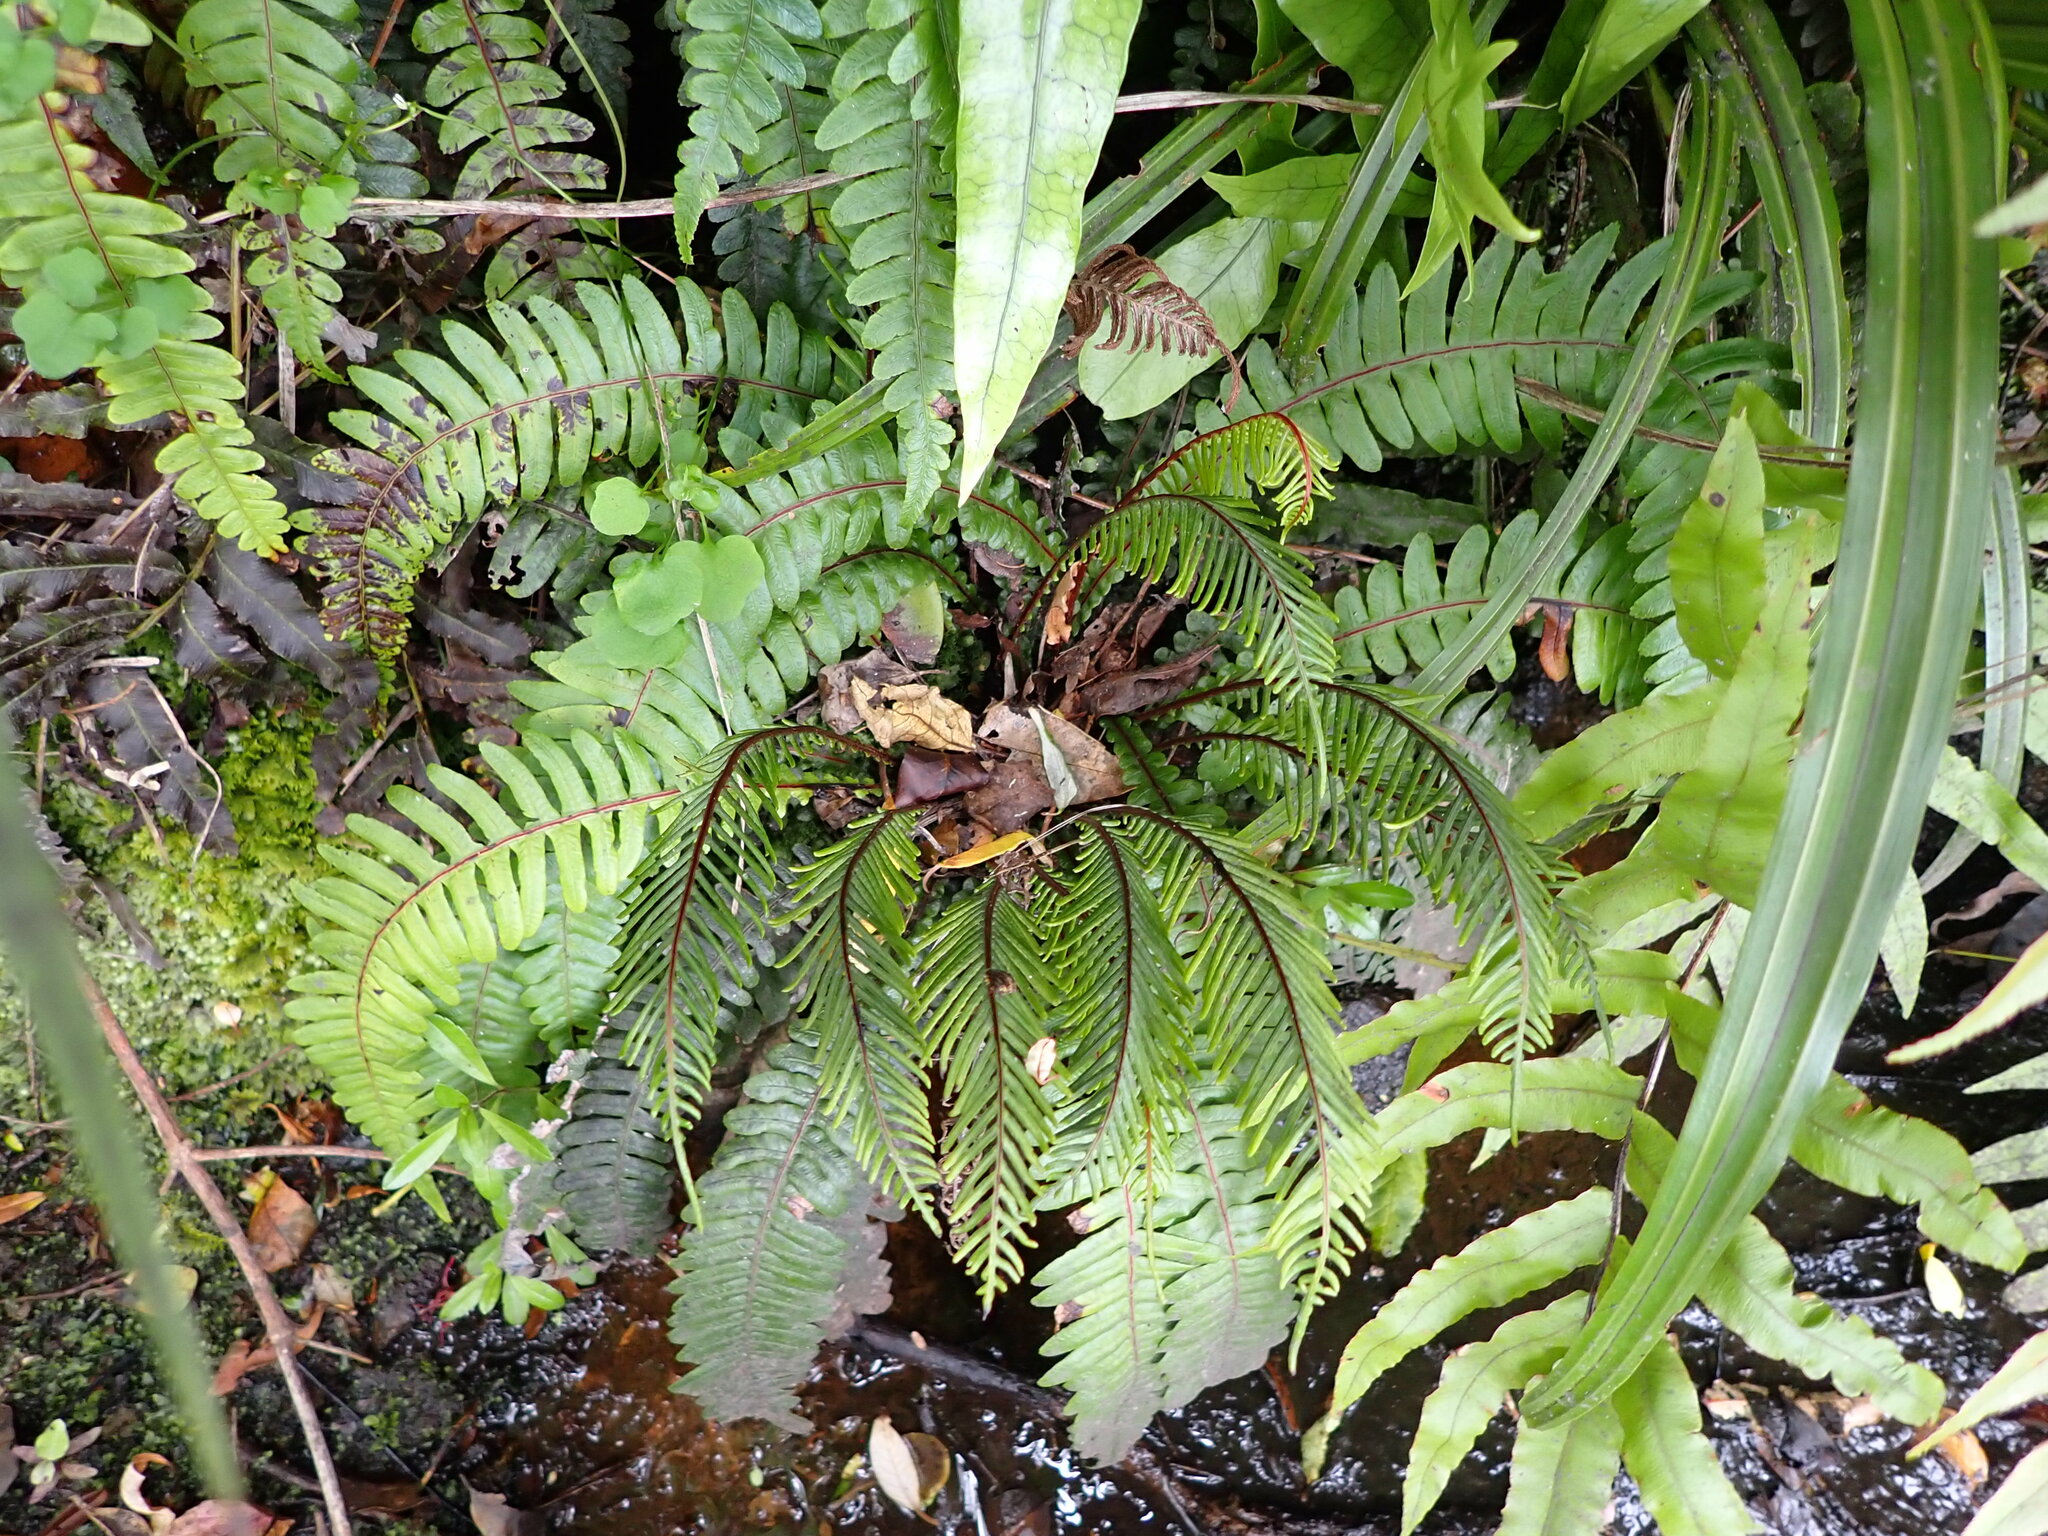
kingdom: Plantae
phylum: Tracheophyta
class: Polypodiopsida
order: Polypodiales
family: Blechnaceae
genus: Austroblechnum
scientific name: Austroblechnum lanceolatum
